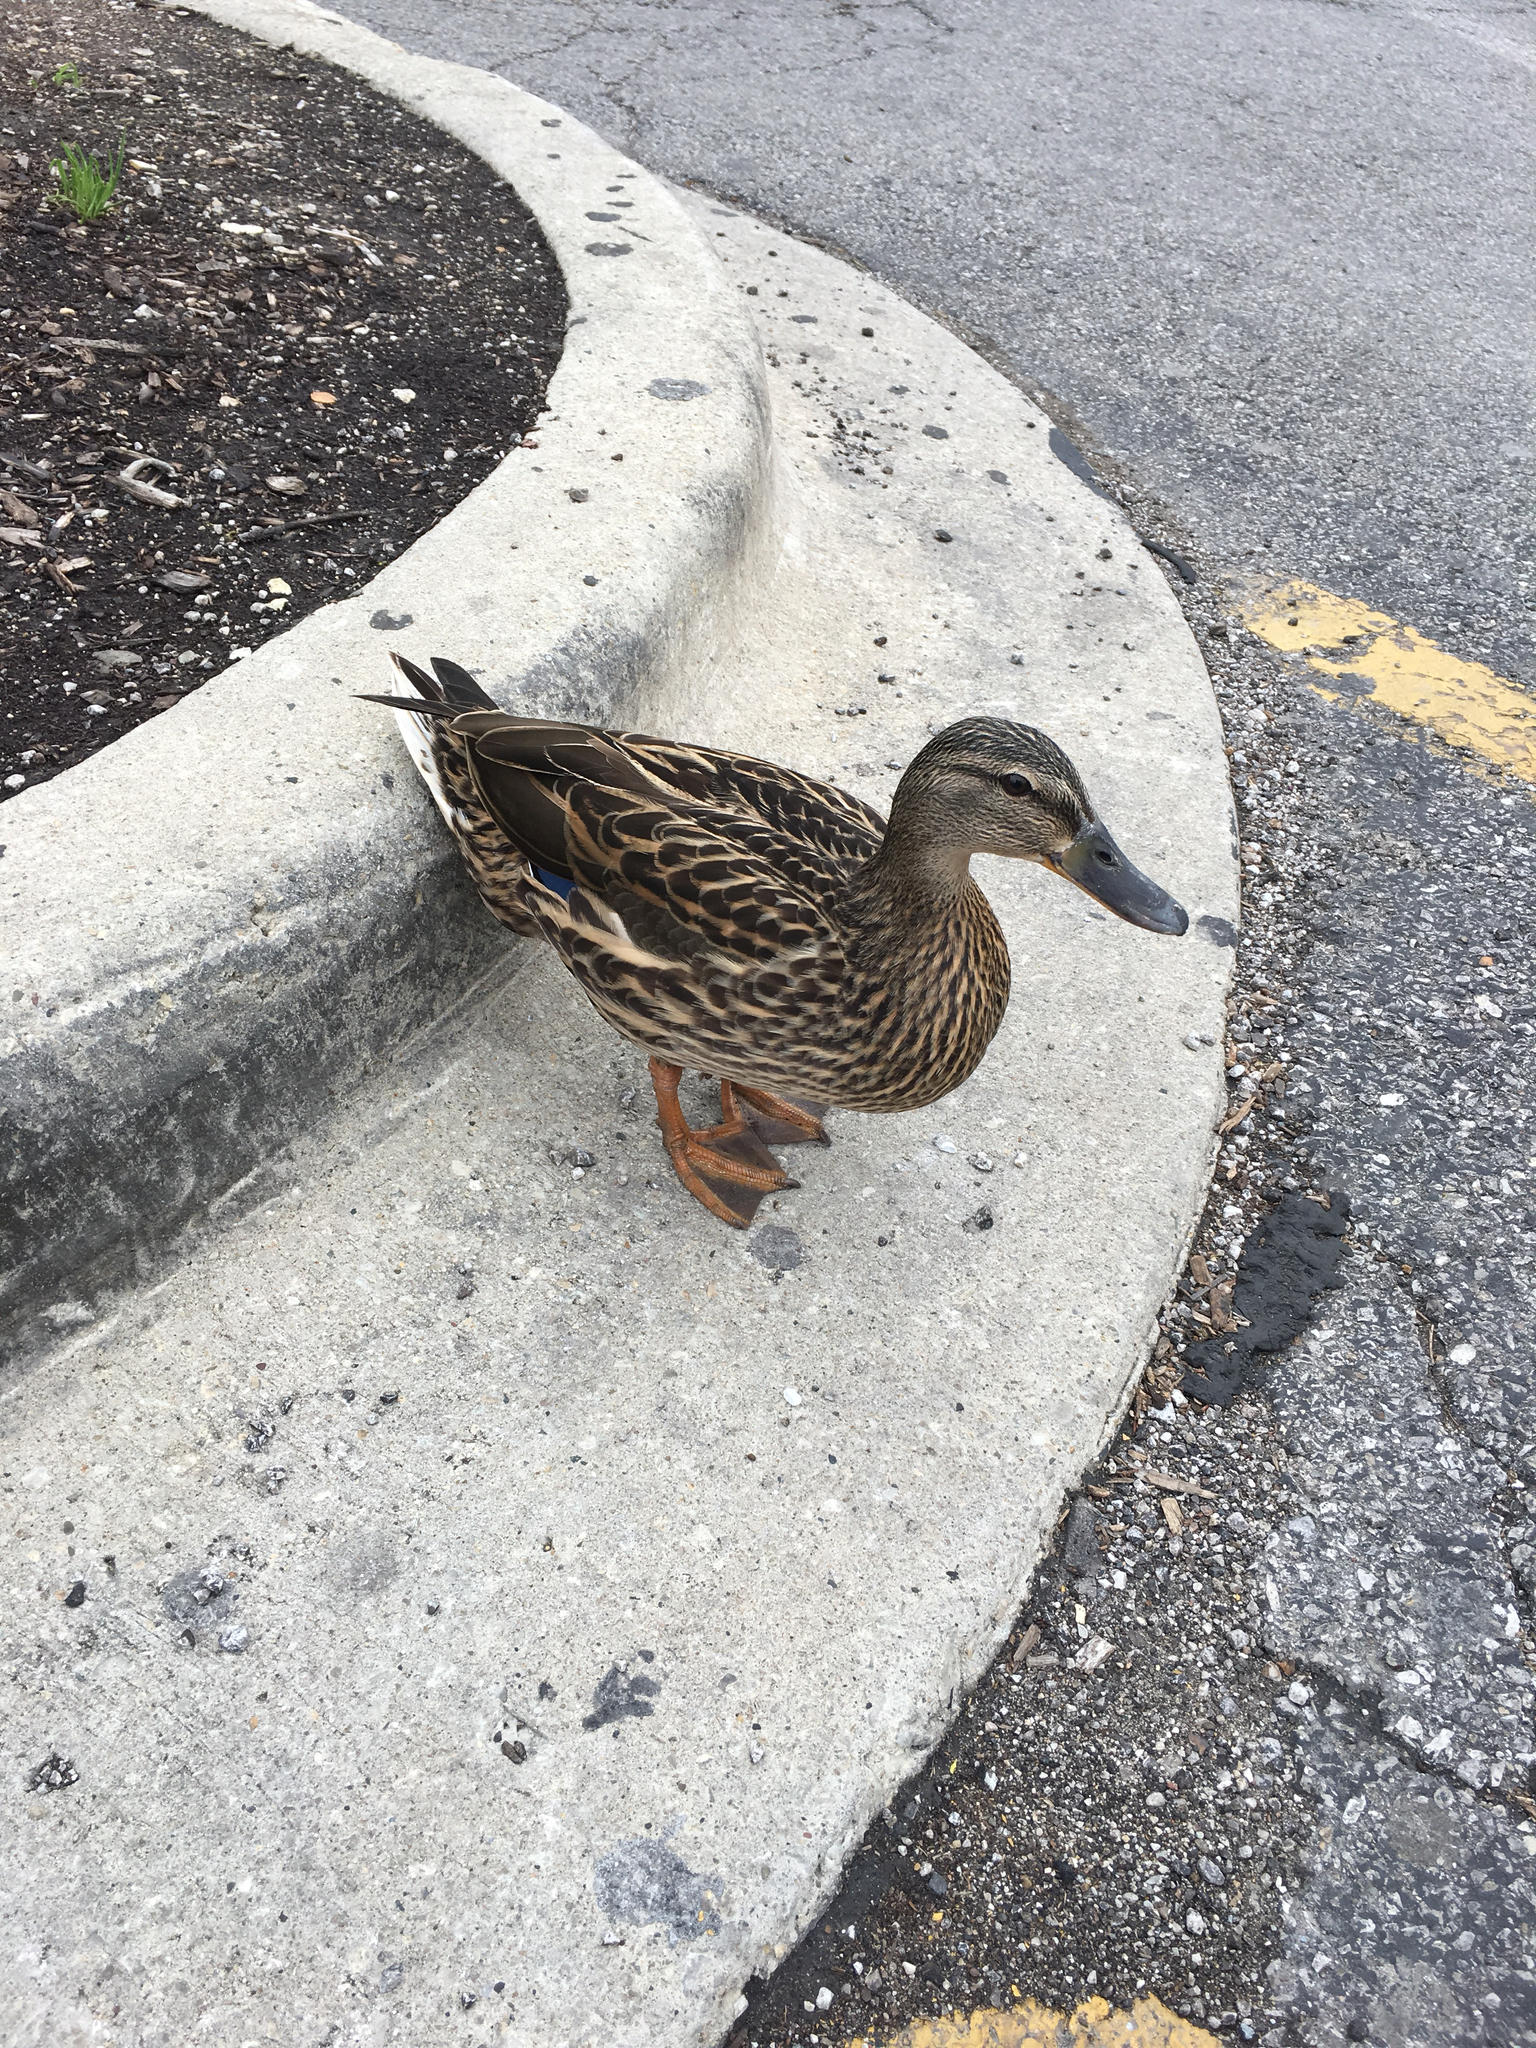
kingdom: Animalia
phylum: Chordata
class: Aves
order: Anseriformes
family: Anatidae
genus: Anas
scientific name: Anas platyrhynchos
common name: Mallard
